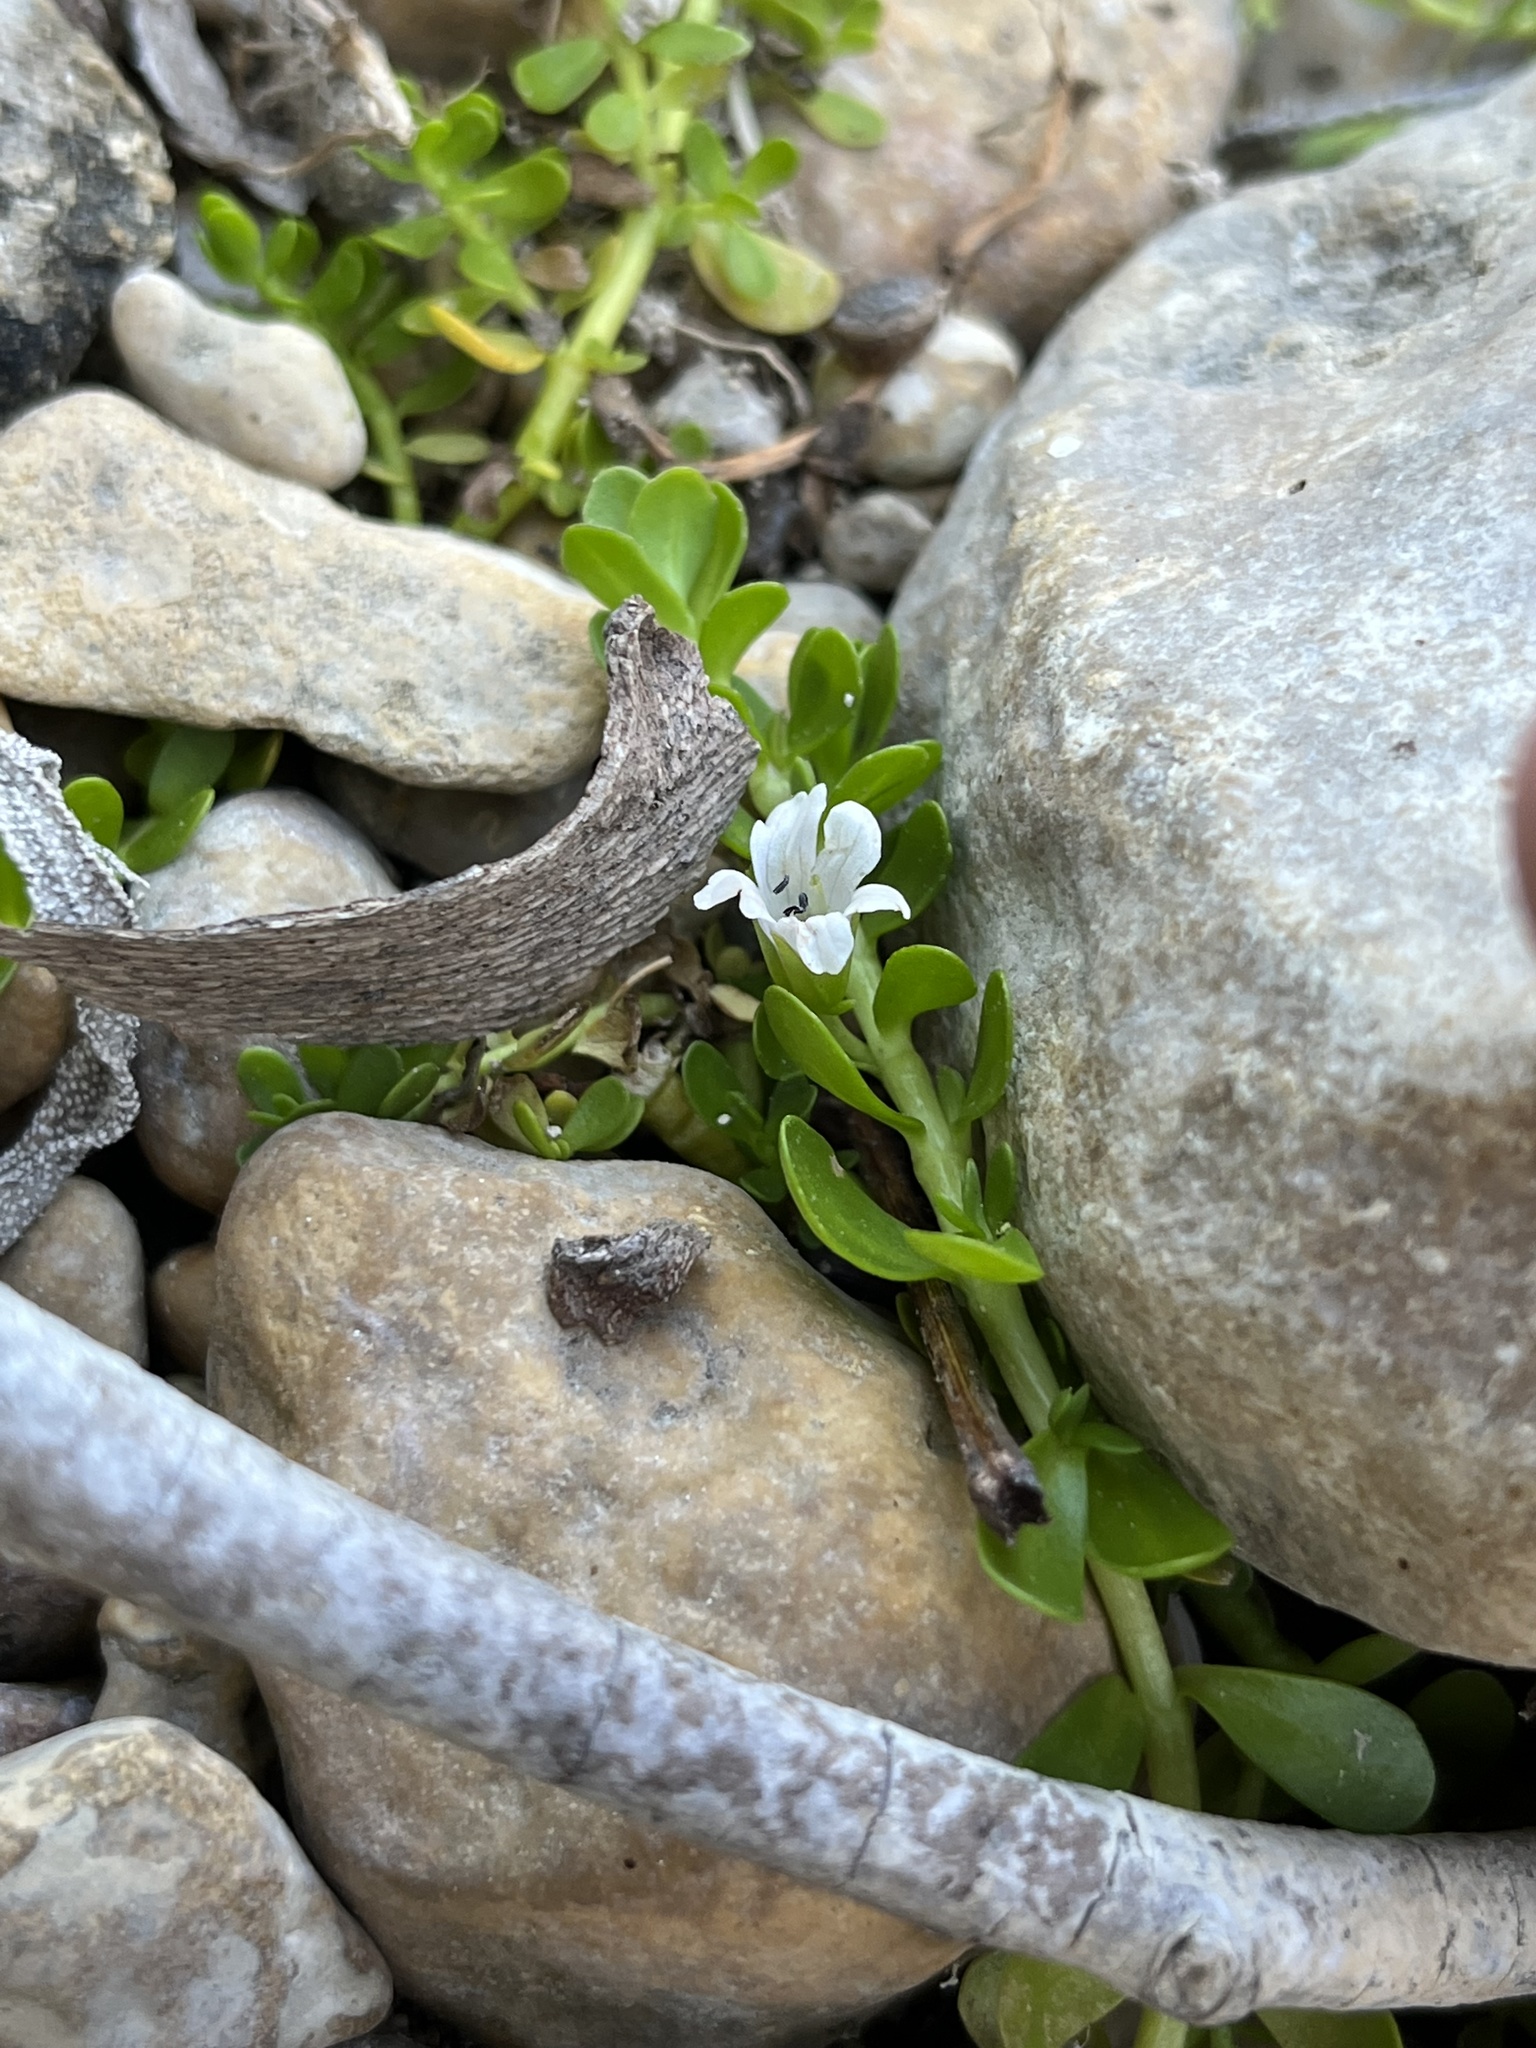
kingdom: Plantae
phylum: Tracheophyta
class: Magnoliopsida
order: Lamiales
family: Plantaginaceae
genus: Bacopa
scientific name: Bacopa monnieri
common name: Indian-pennywort
